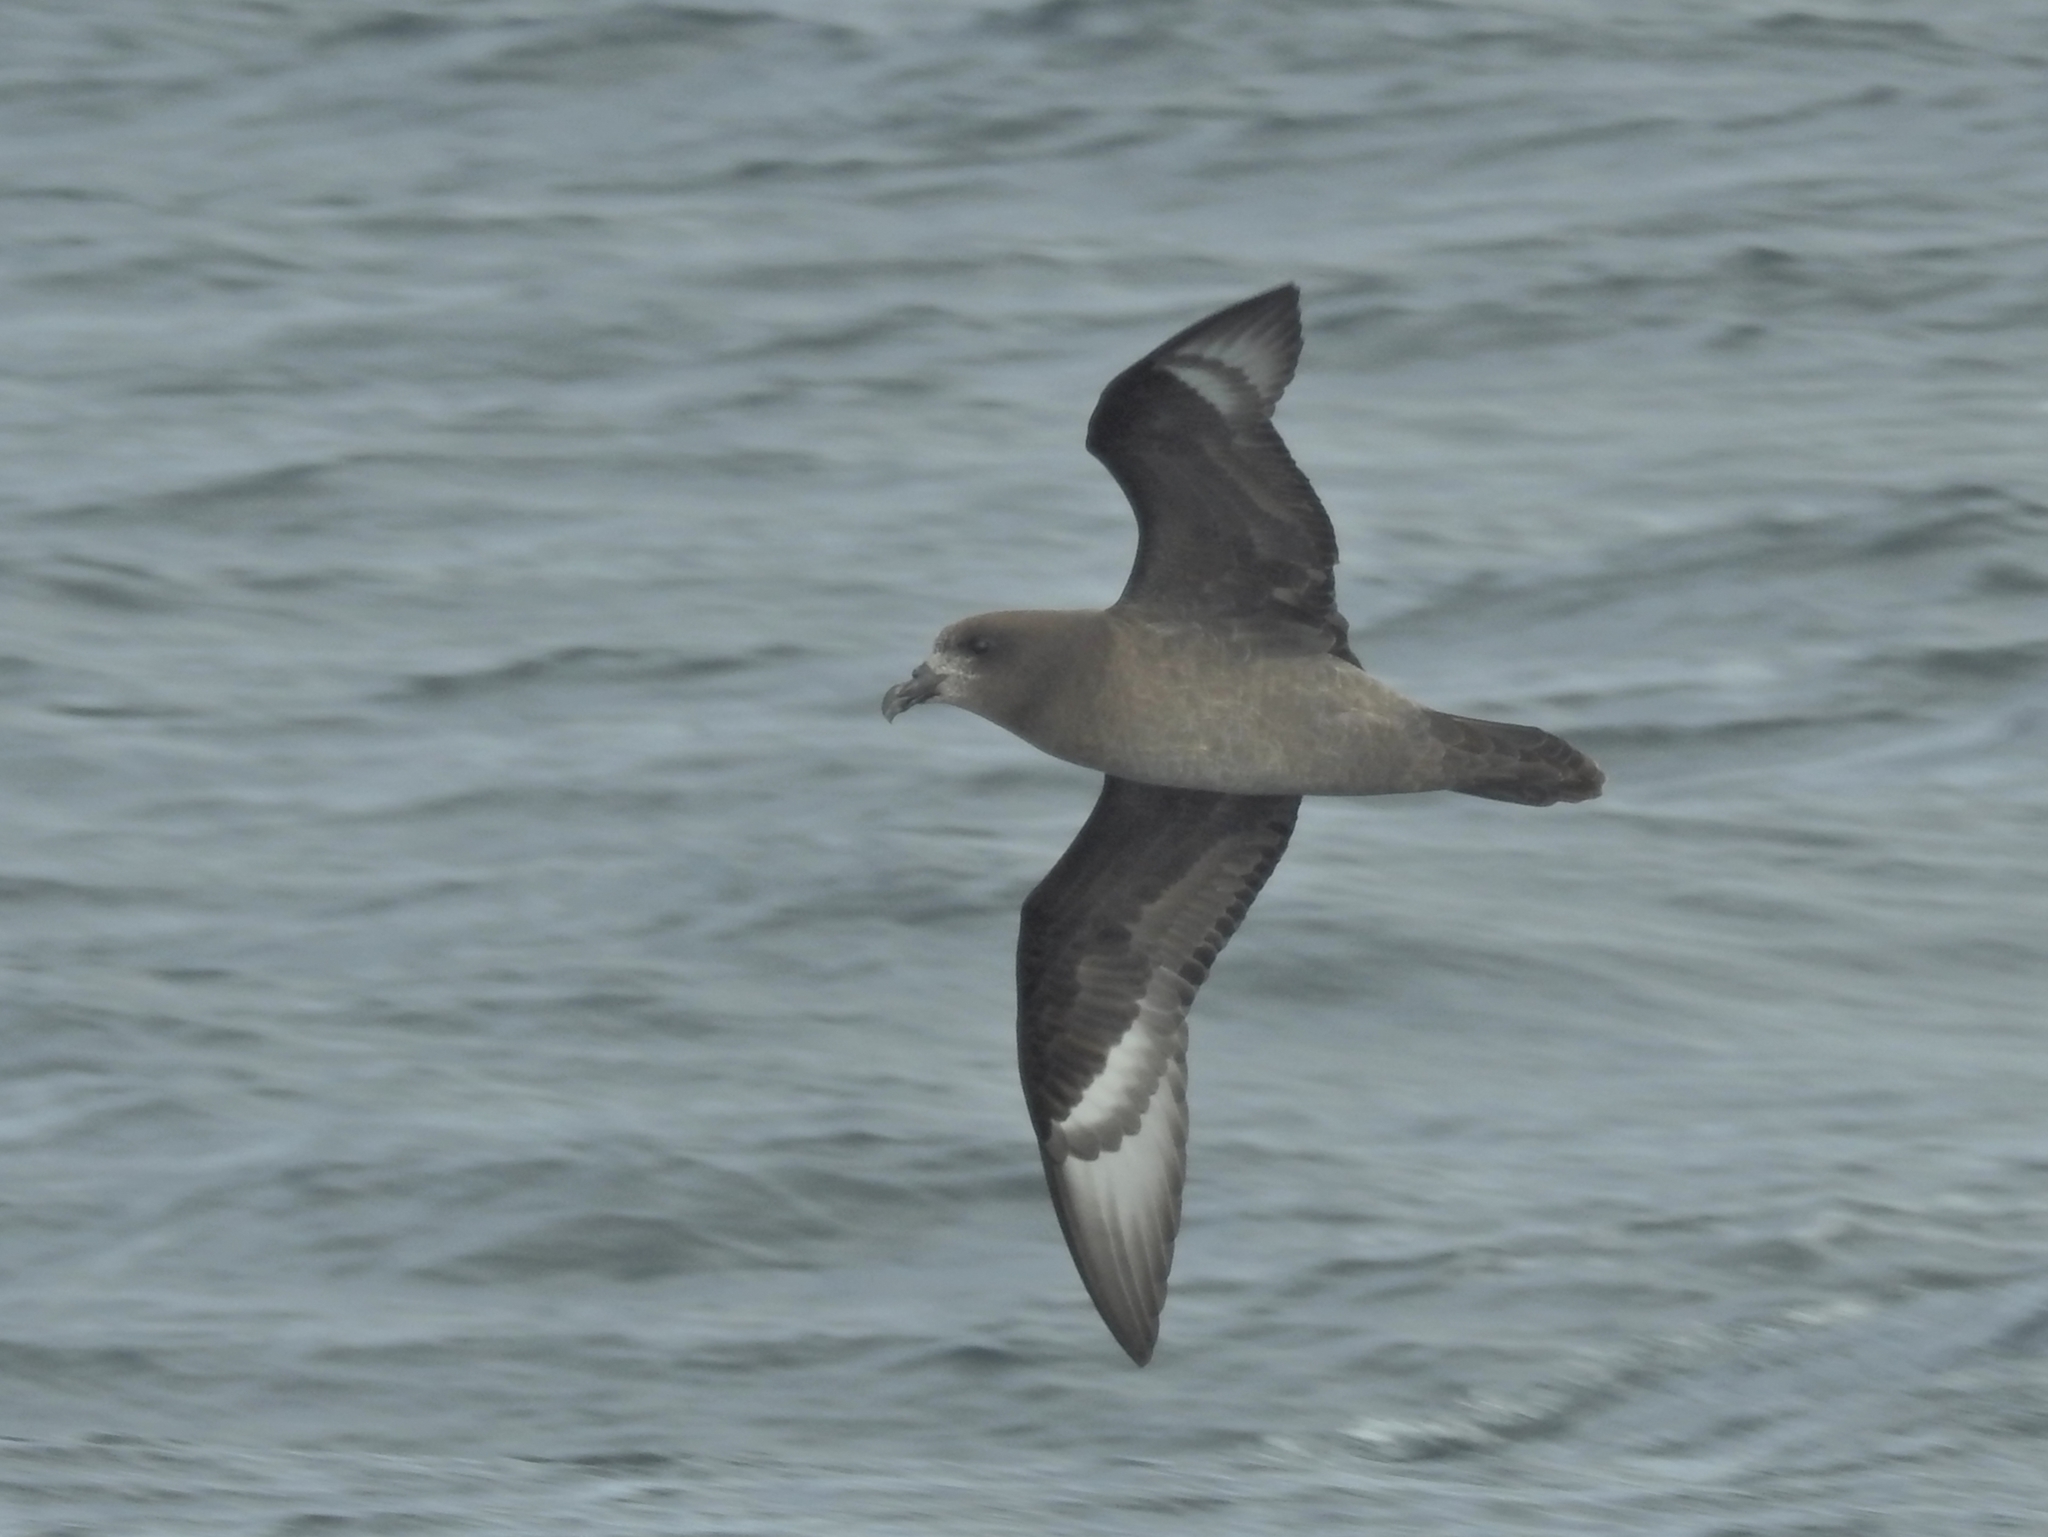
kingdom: Animalia
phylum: Chordata
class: Aves
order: Procellariiformes
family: Procellariidae
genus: Pterodroma
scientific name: Pterodroma solandri
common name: Providence petrel
